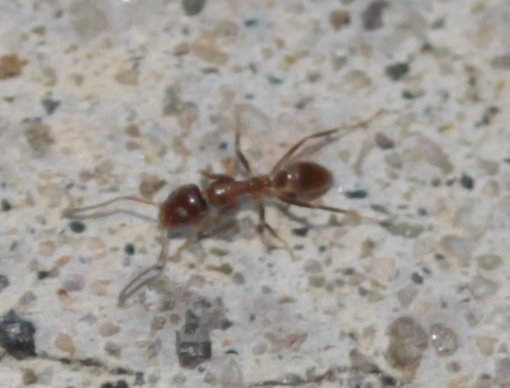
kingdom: Animalia
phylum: Arthropoda
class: Insecta
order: Hymenoptera
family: Formicidae
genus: Linepithema
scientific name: Linepithema humile
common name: Argentine ant
